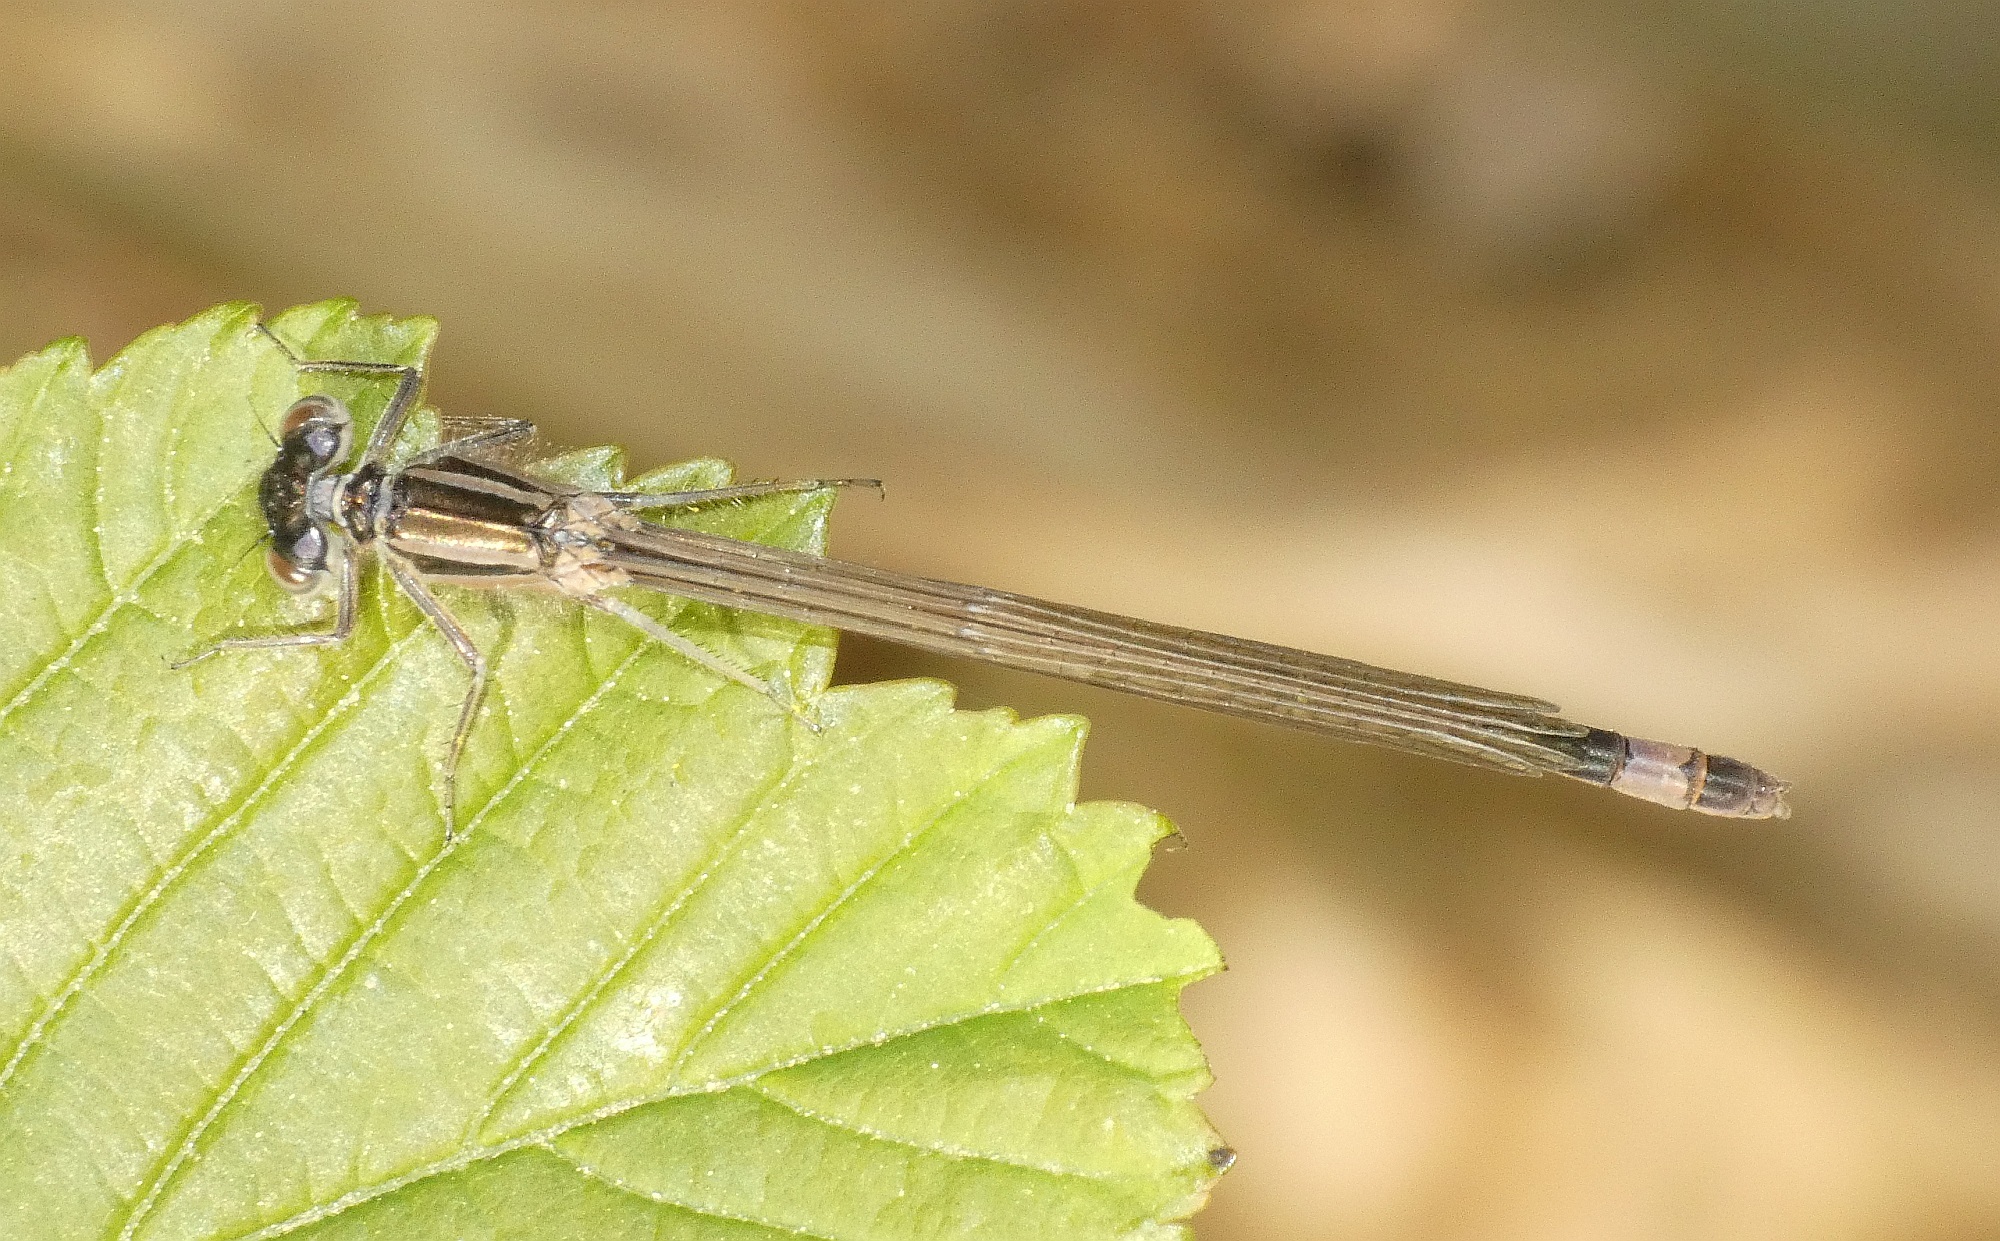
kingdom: Animalia
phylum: Arthropoda
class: Insecta
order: Odonata
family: Coenagrionidae
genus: Ischnura
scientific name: Ischnura elegans
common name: Blue-tailed damselfly
